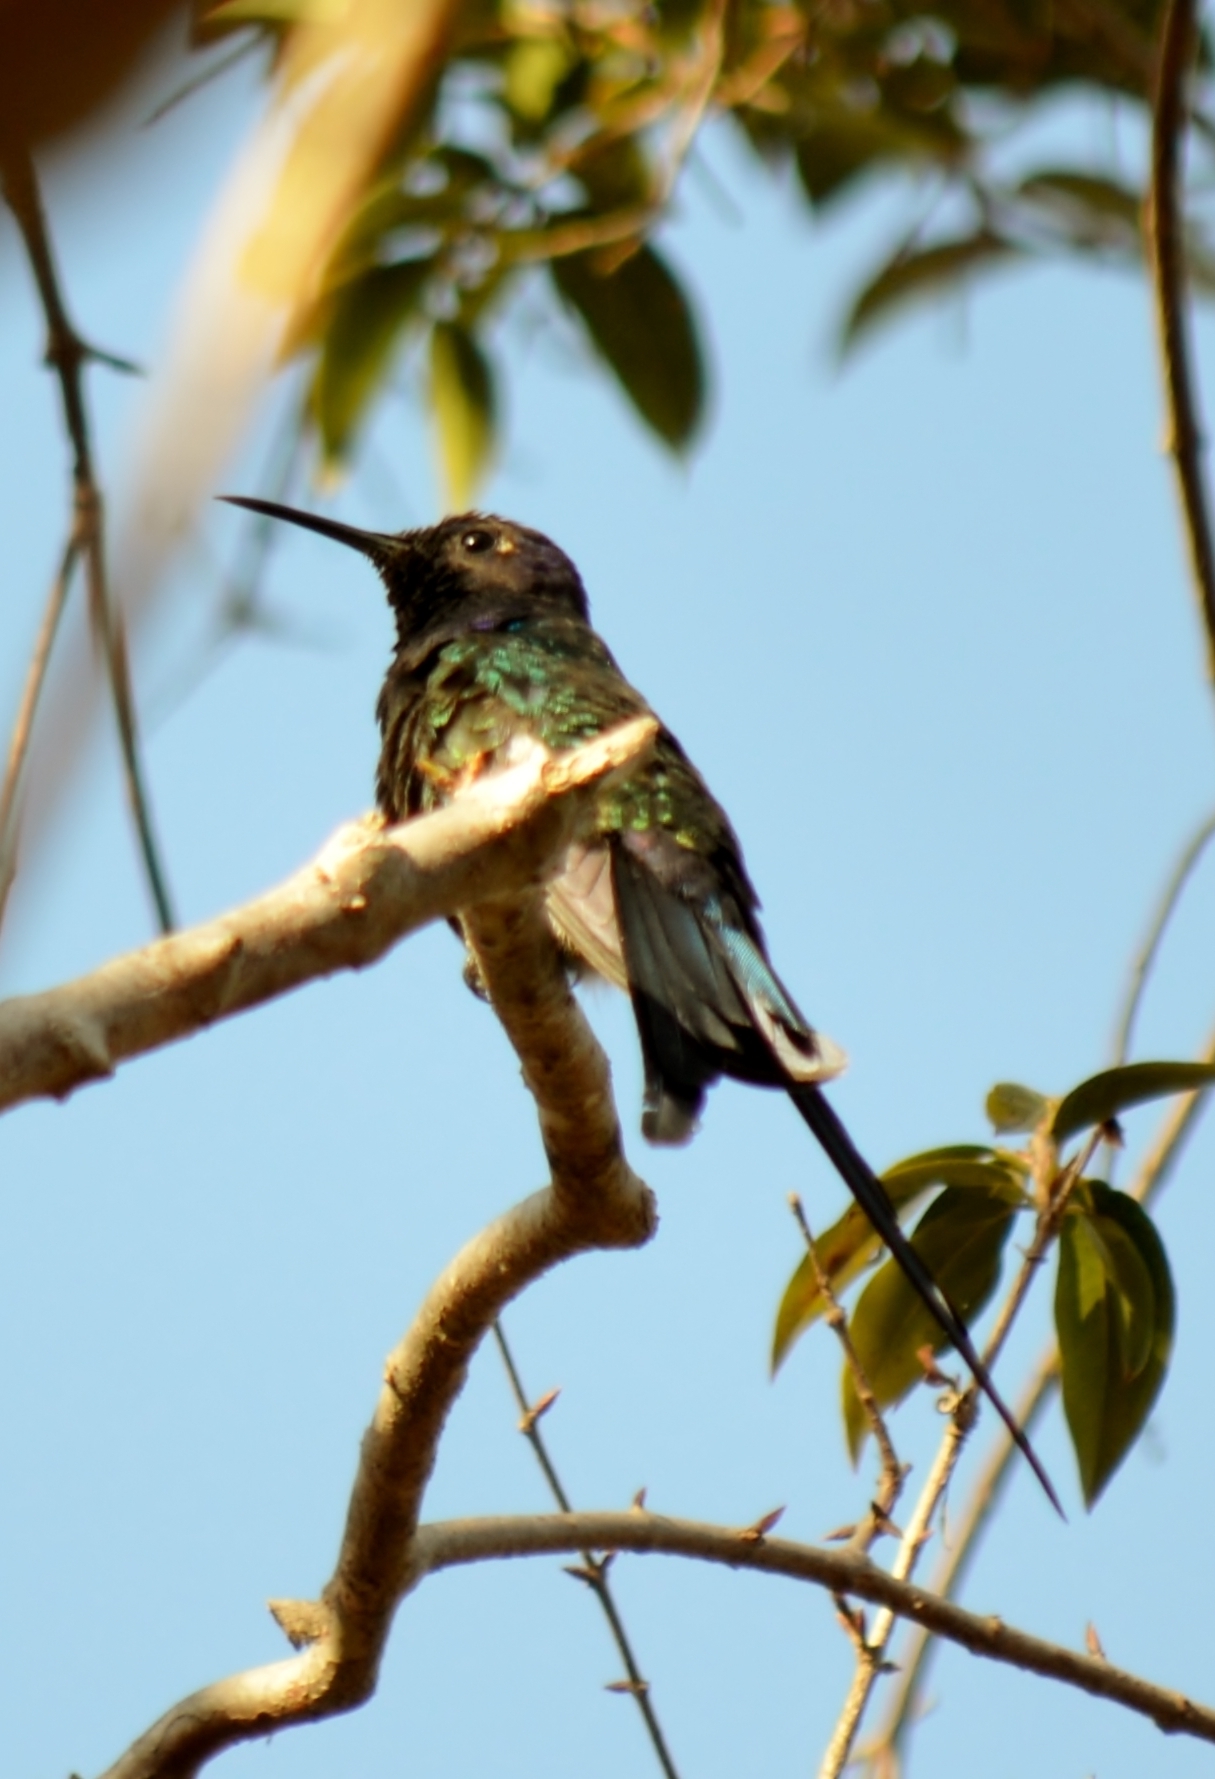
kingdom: Animalia
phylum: Chordata
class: Aves
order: Apodiformes
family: Trochilidae
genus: Eupetomena
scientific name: Eupetomena macroura
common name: Swallow-tailed hummingbird
